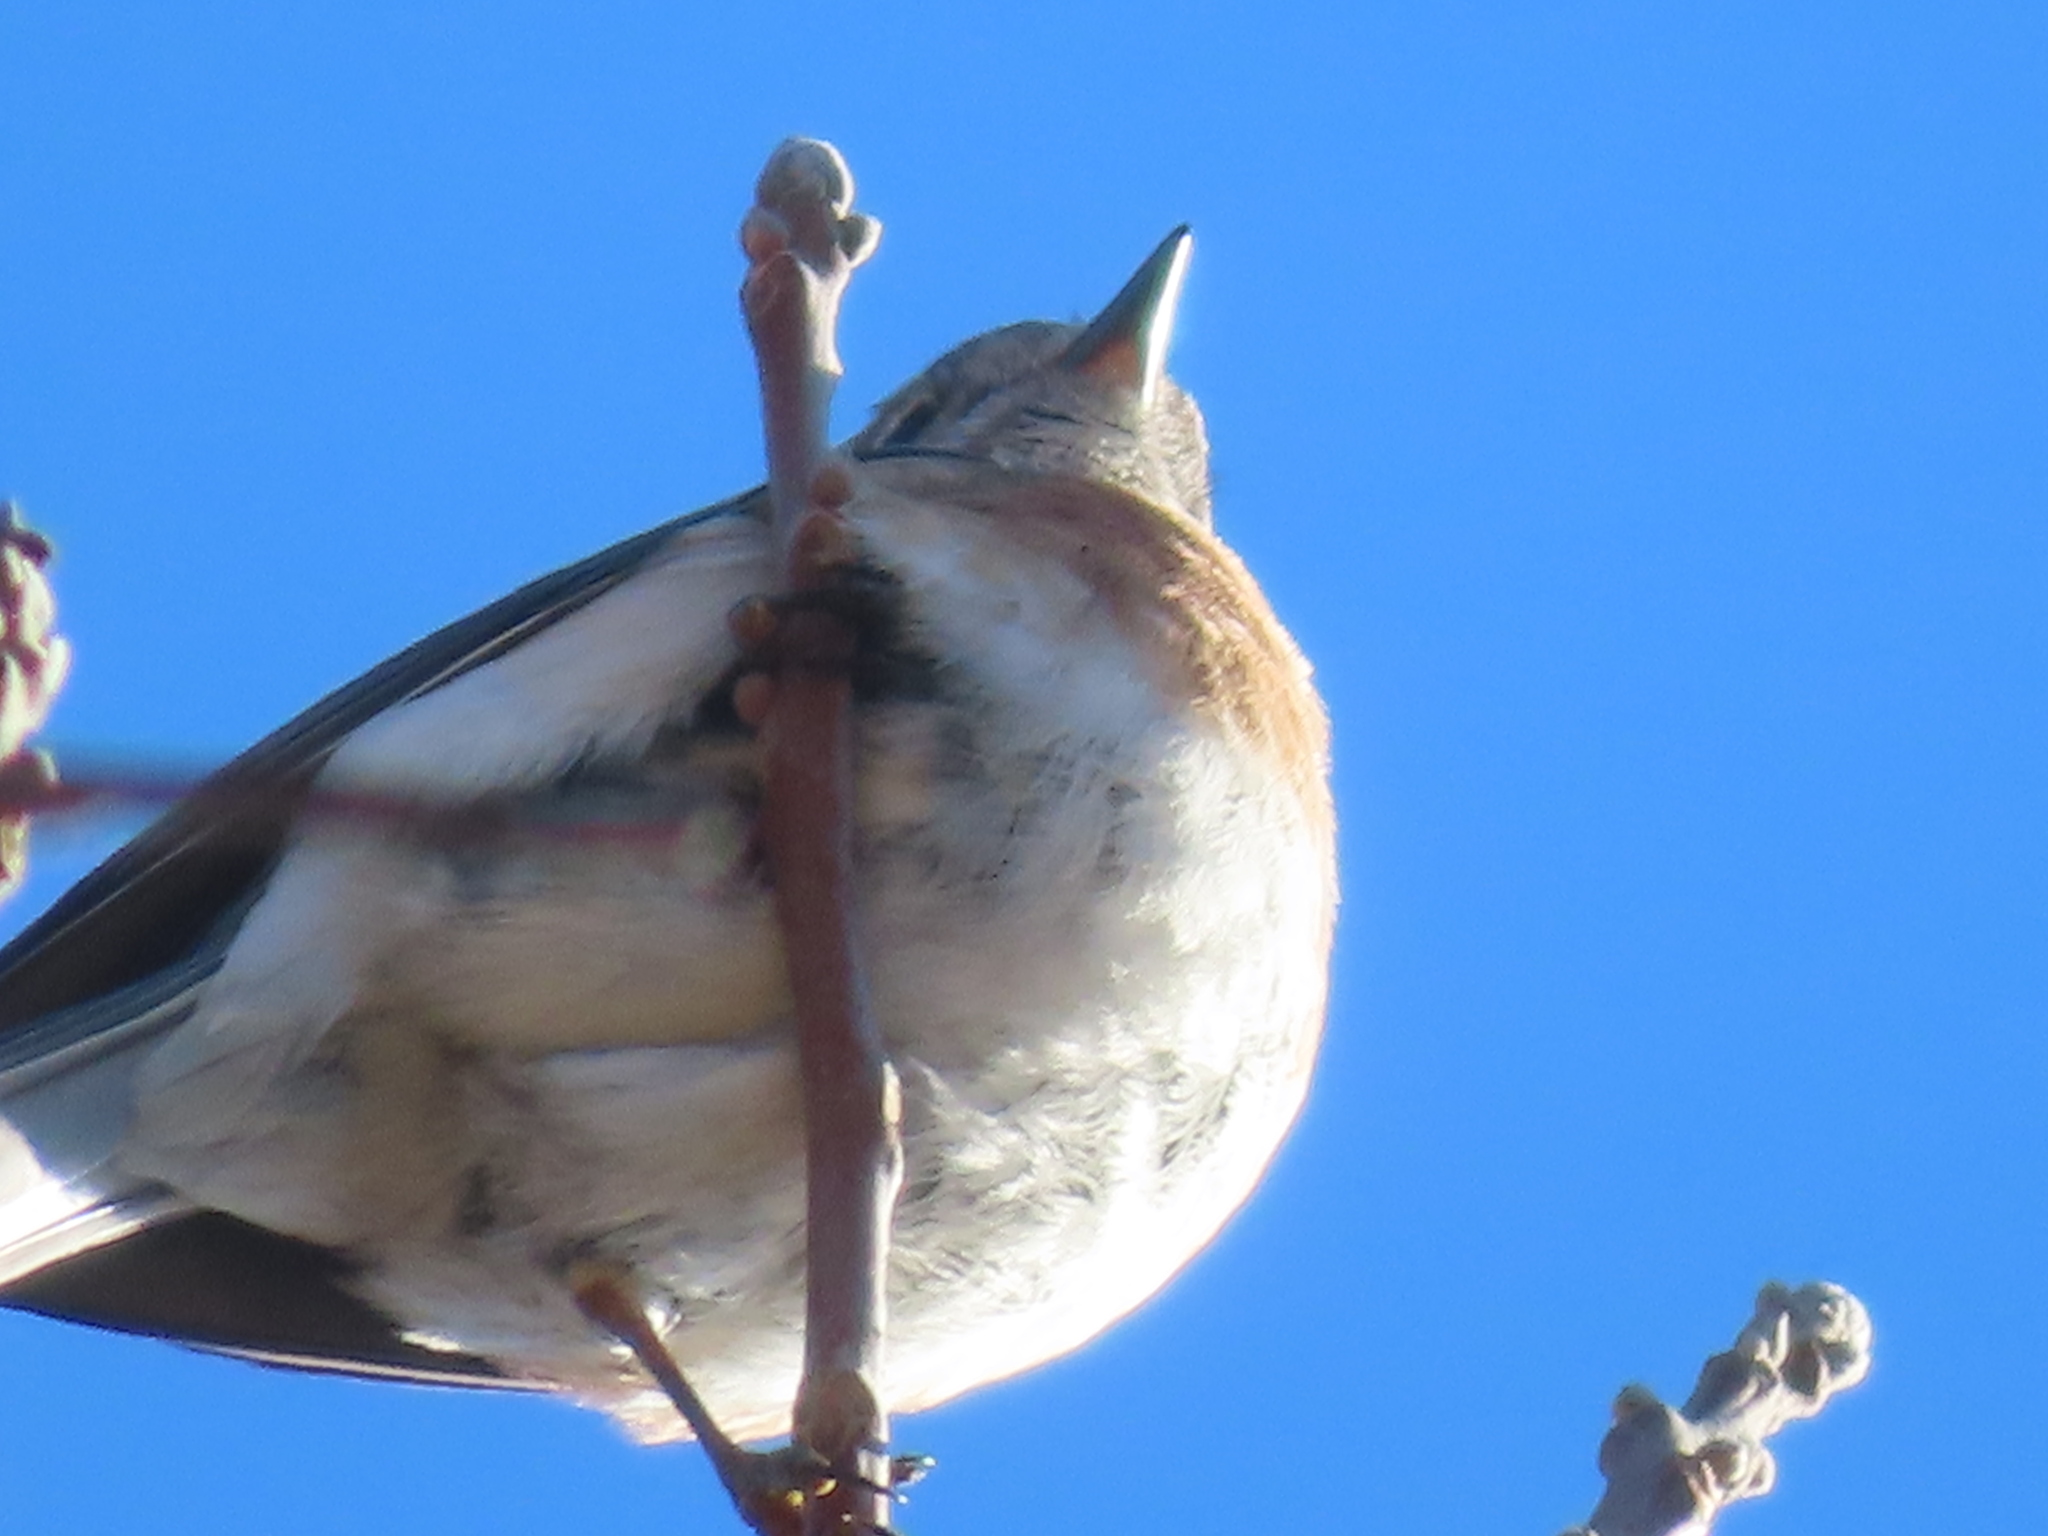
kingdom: Animalia
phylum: Chordata
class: Aves
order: Passeriformes
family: Turdidae
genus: Sialia
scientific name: Sialia sialis
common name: Eastern bluebird
